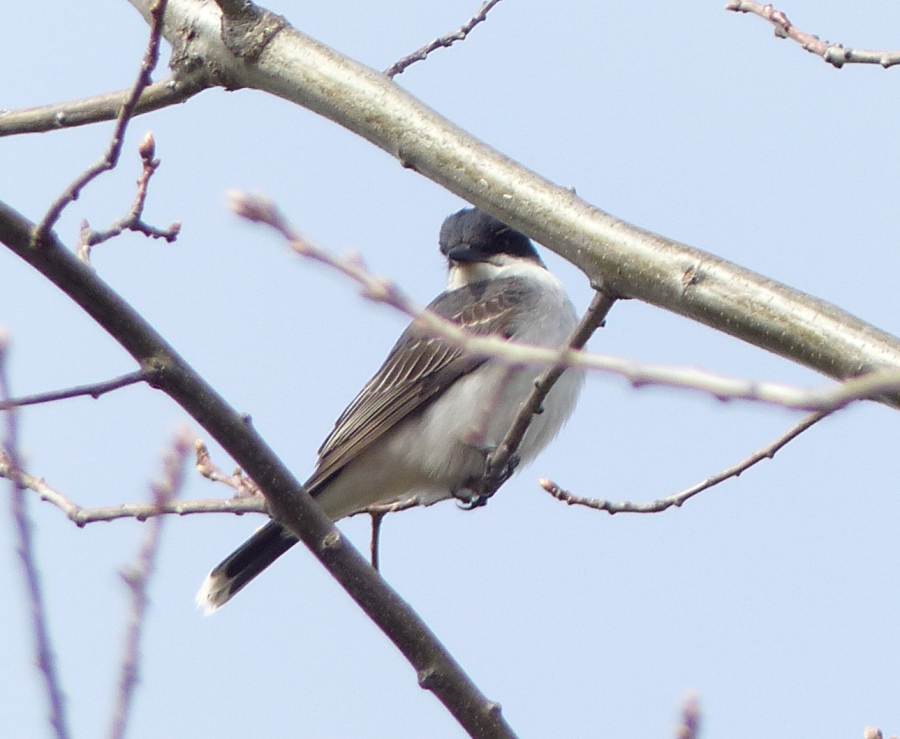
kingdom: Animalia
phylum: Chordata
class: Aves
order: Passeriformes
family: Tyrannidae
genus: Tyrannus
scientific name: Tyrannus tyrannus
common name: Eastern kingbird
